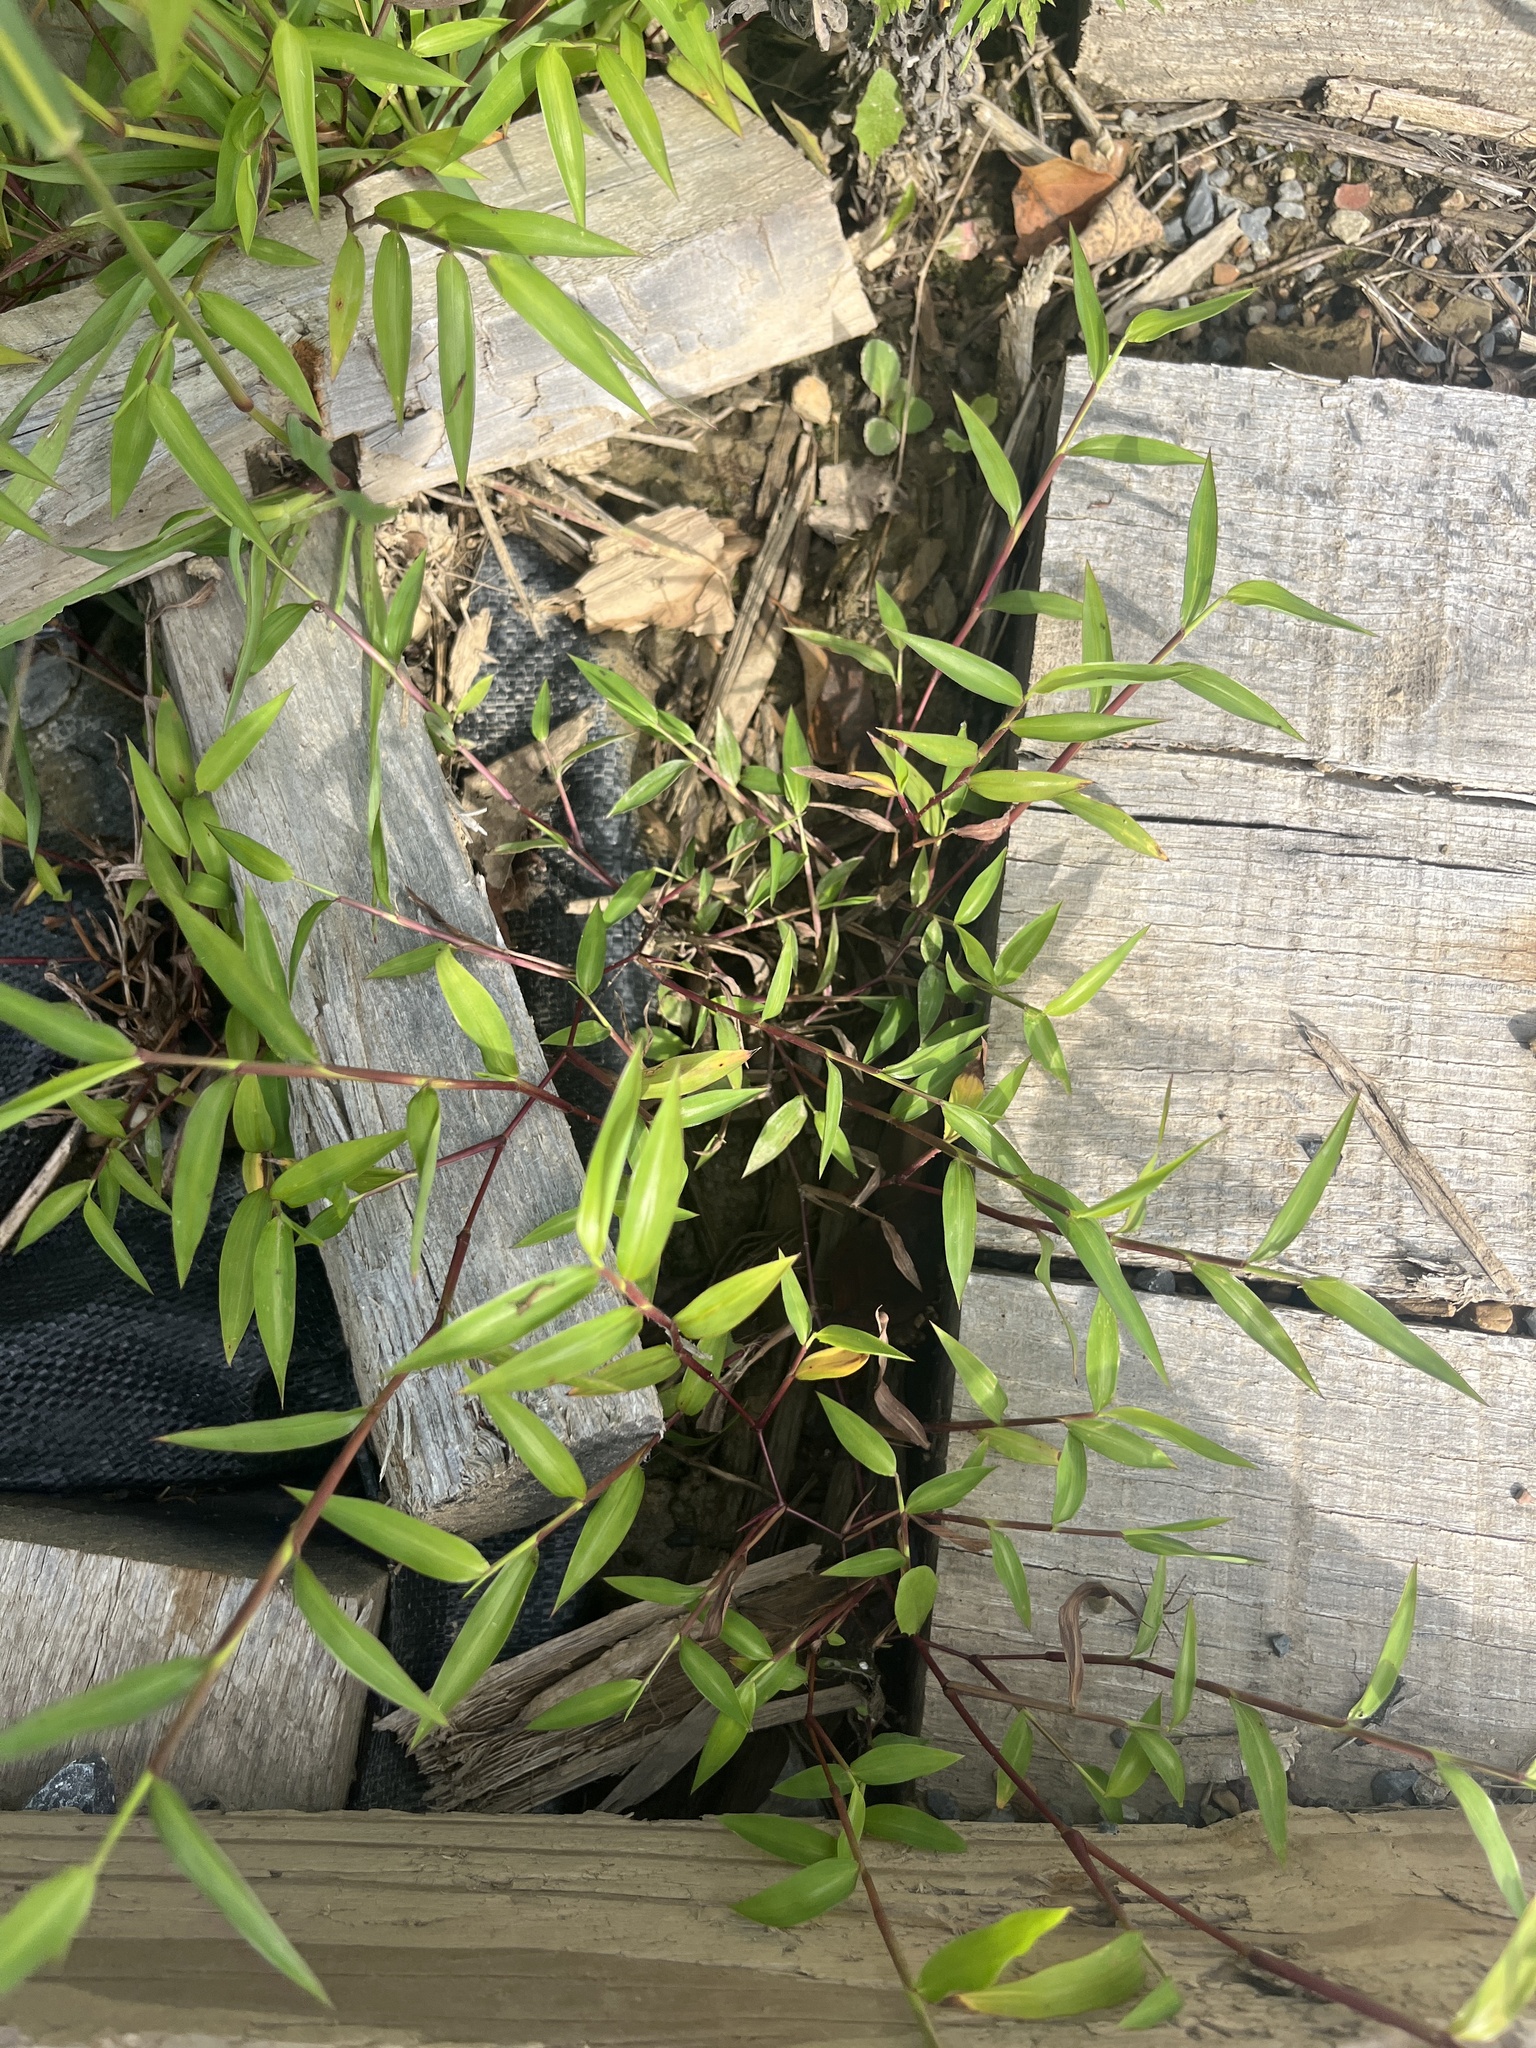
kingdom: Plantae
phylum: Tracheophyta
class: Liliopsida
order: Poales
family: Poaceae
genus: Microstegium
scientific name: Microstegium vimineum
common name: Japanese stiltgrass
